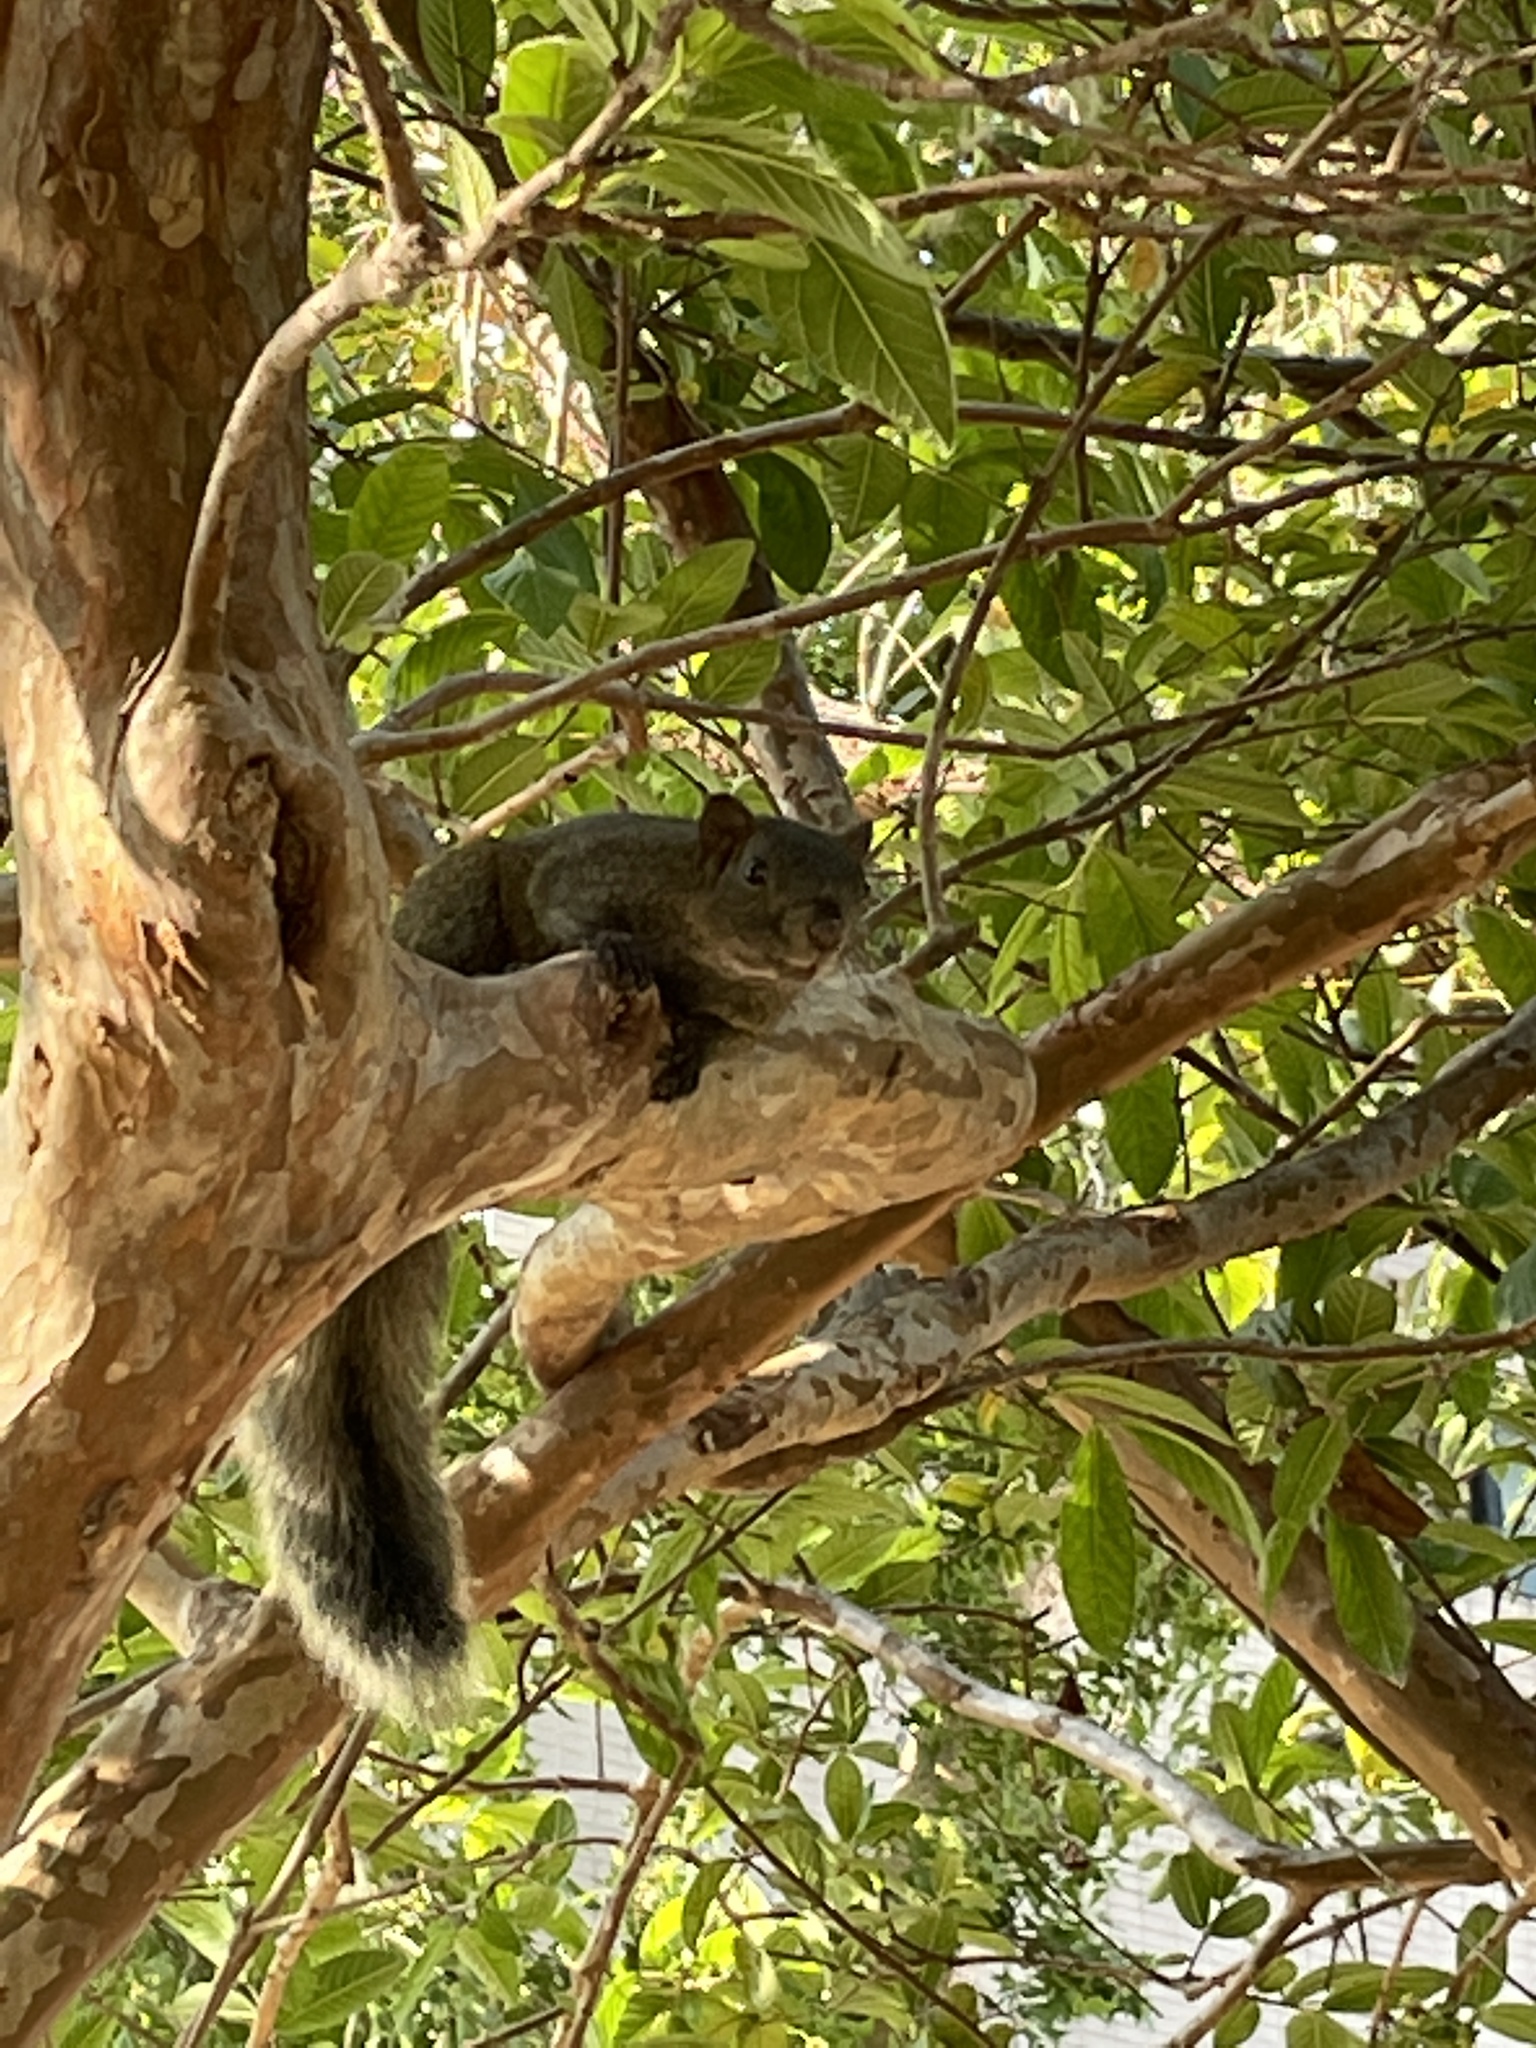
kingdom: Animalia
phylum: Chordata
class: Mammalia
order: Rodentia
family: Sciuridae
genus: Callosciurus
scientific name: Callosciurus erythraeus
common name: Pallas's squirrel
